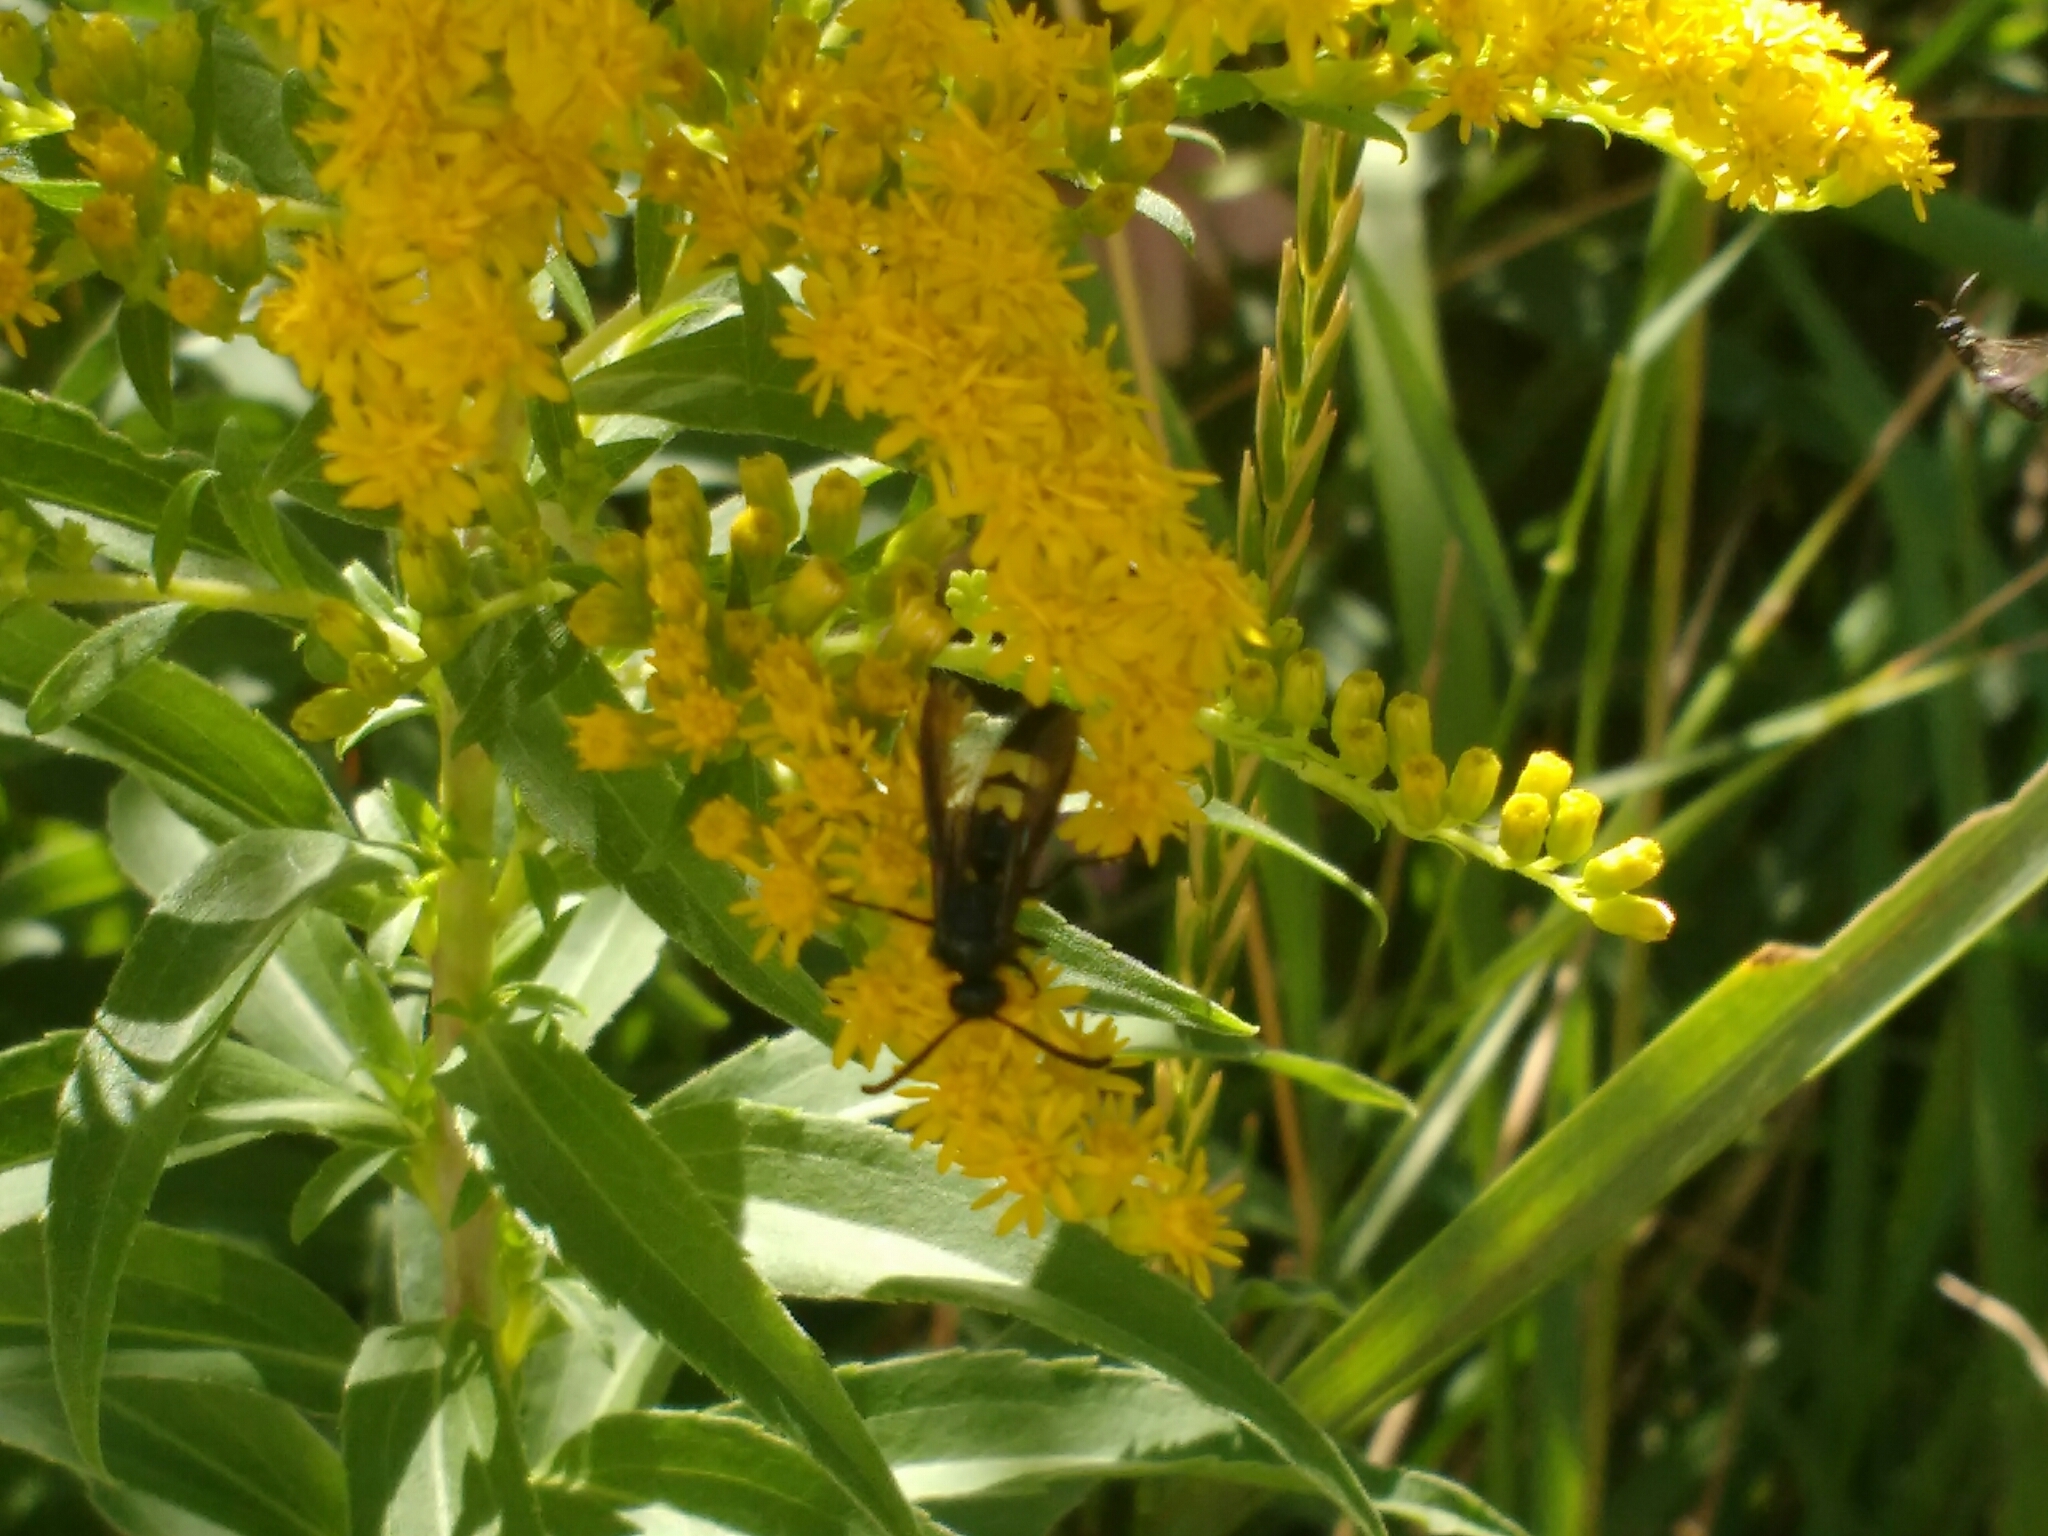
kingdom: Animalia
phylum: Arthropoda
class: Insecta
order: Hymenoptera
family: Scoliidae
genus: Scolia
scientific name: Scolia hirta
